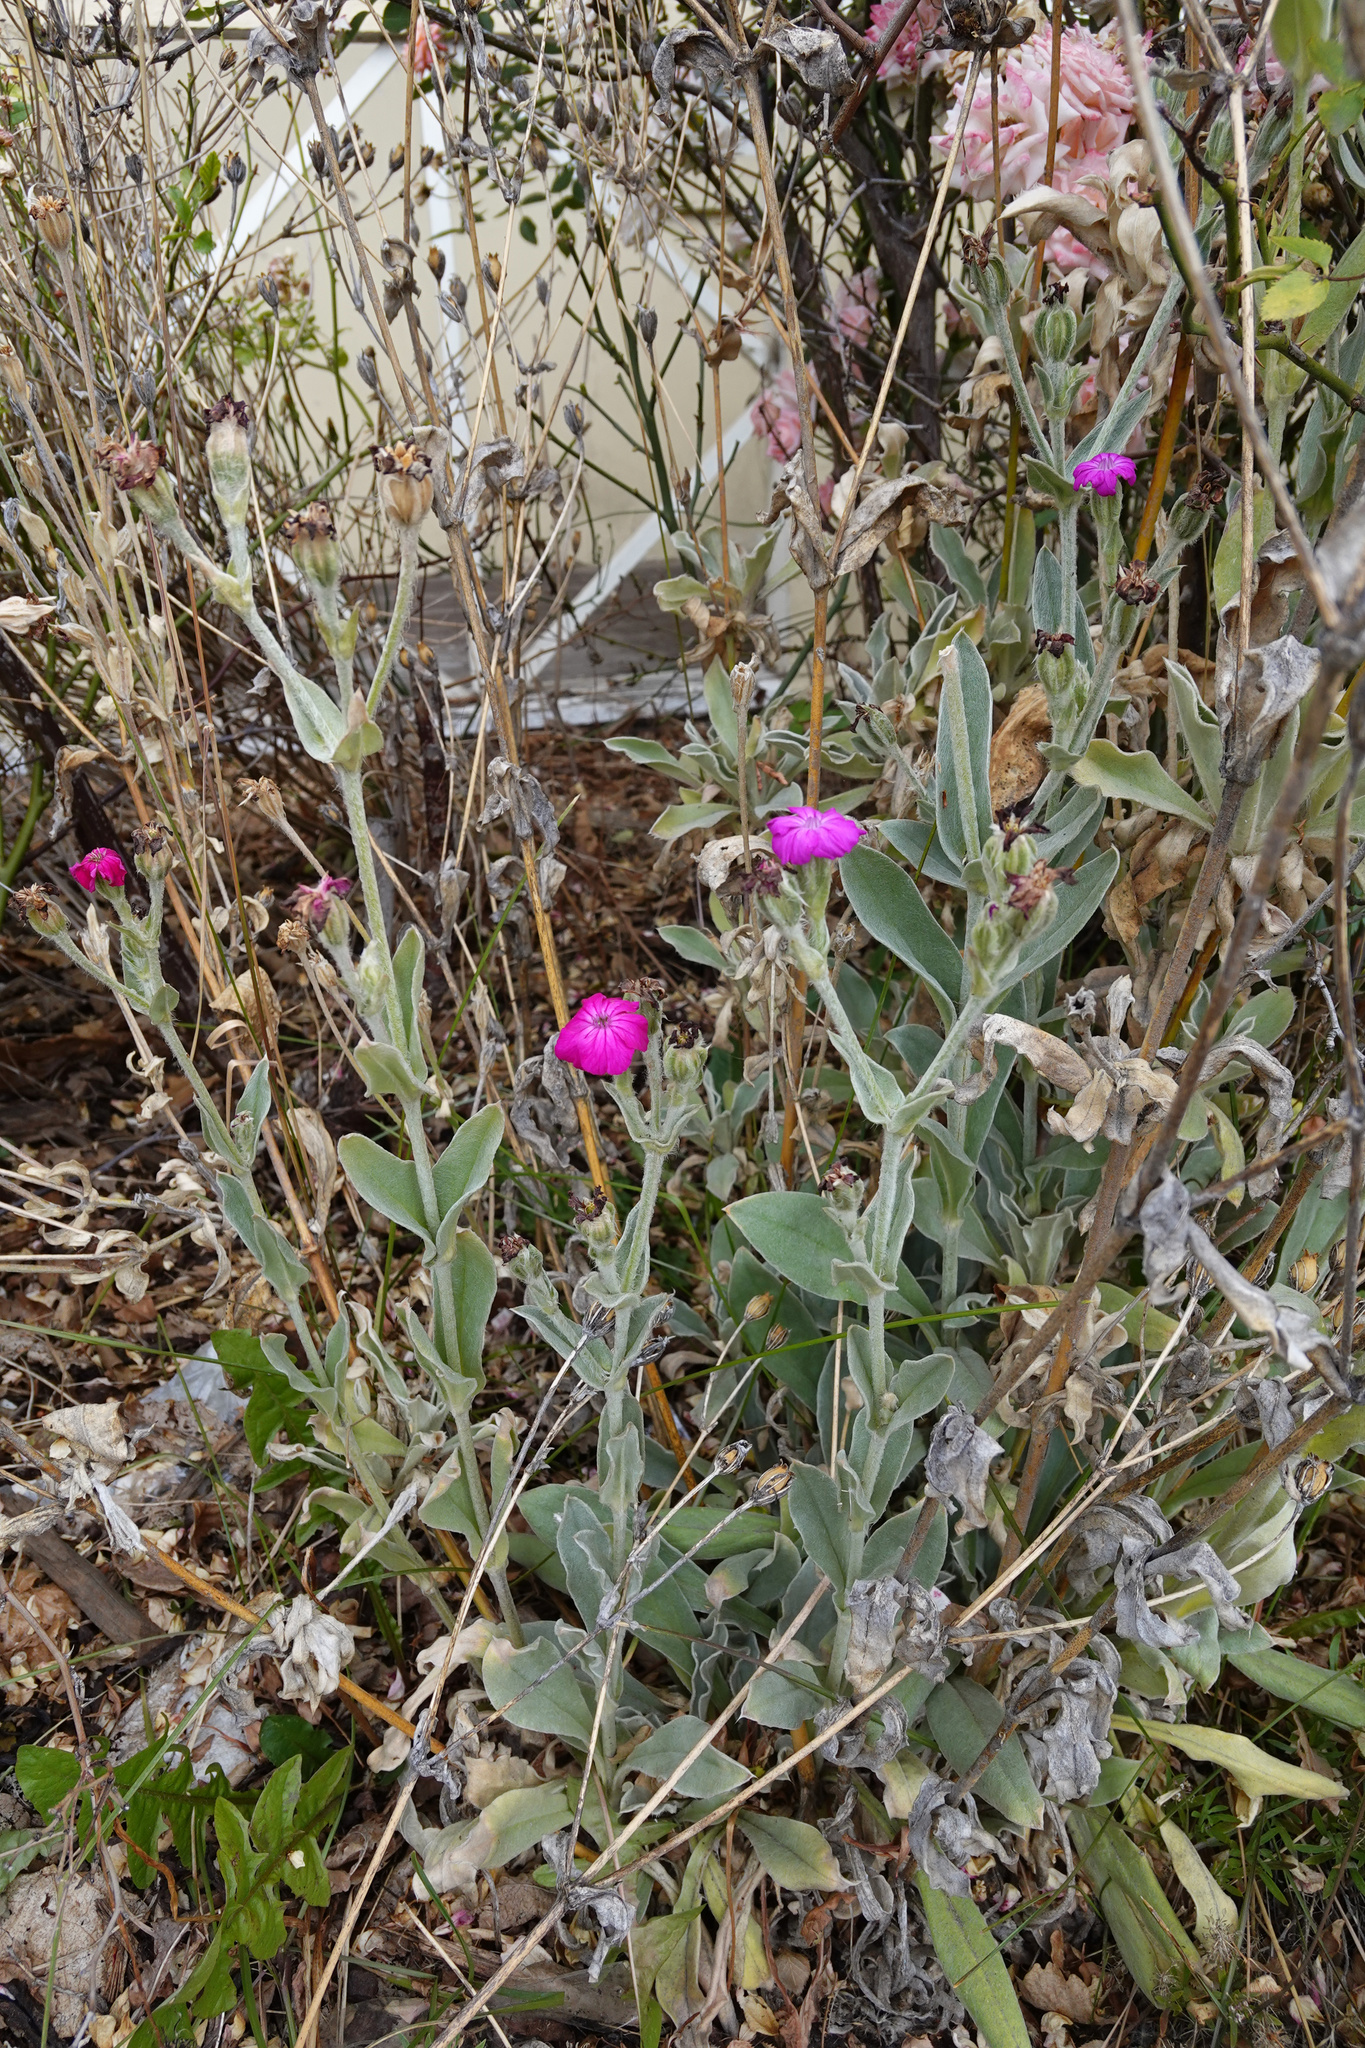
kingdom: Plantae
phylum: Tracheophyta
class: Magnoliopsida
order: Caryophyllales
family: Caryophyllaceae
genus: Silene
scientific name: Silene coronaria
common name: Rose campion
